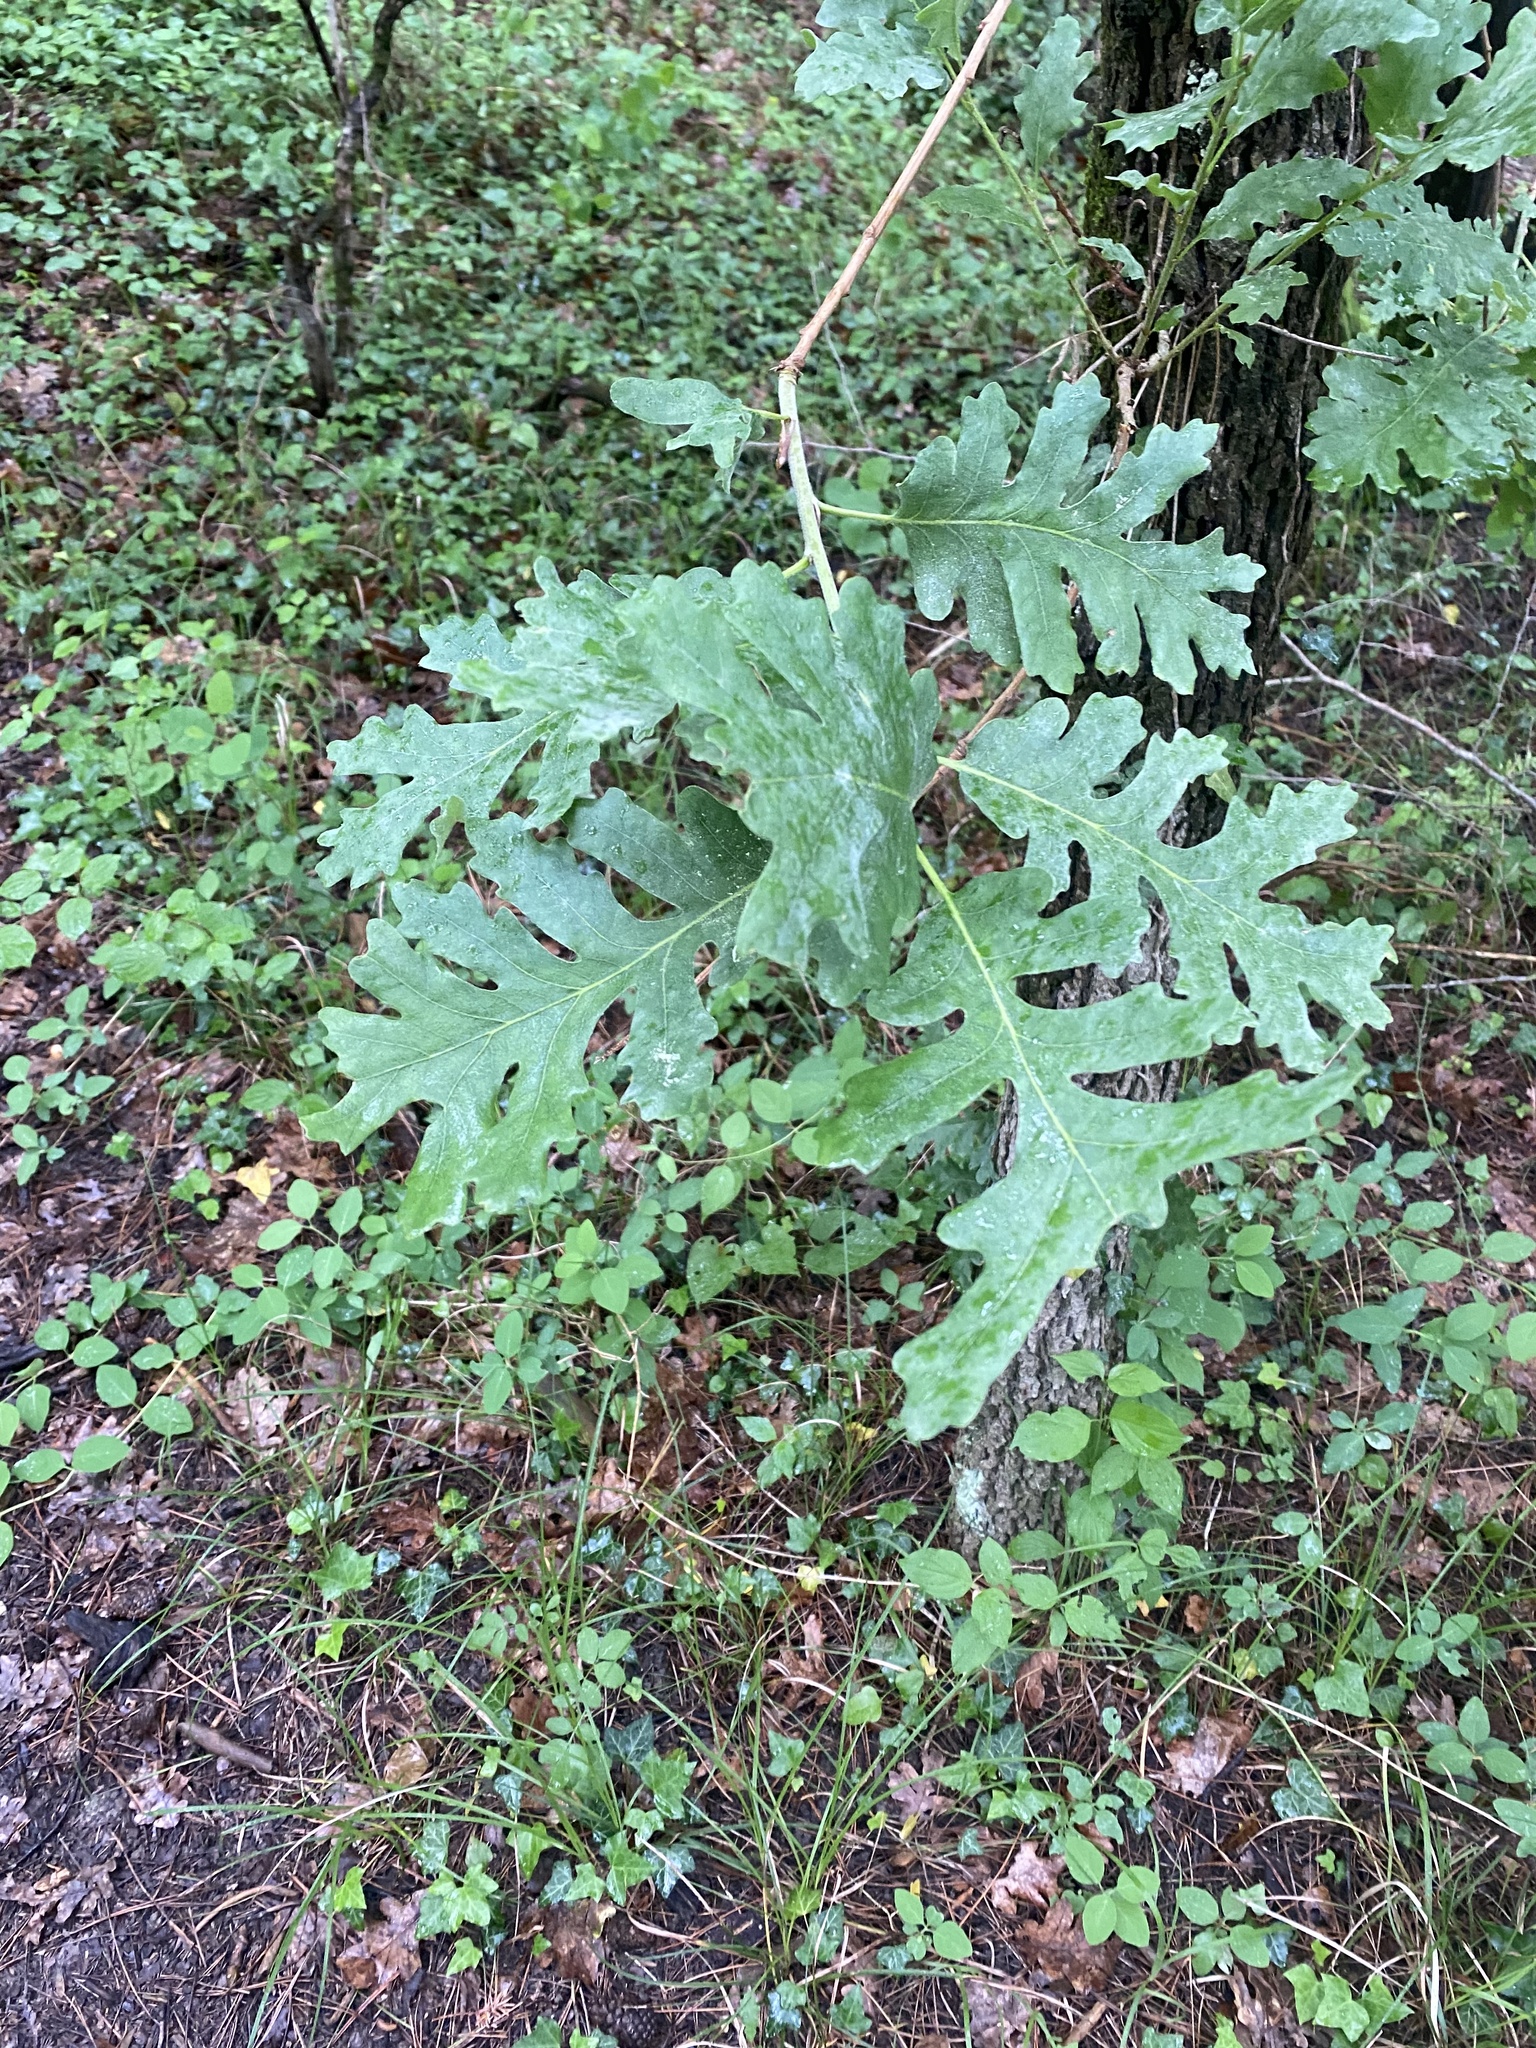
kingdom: Plantae
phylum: Tracheophyta
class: Magnoliopsida
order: Fagales
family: Fagaceae
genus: Quercus
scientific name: Quercus pubescens
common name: Downy oak
